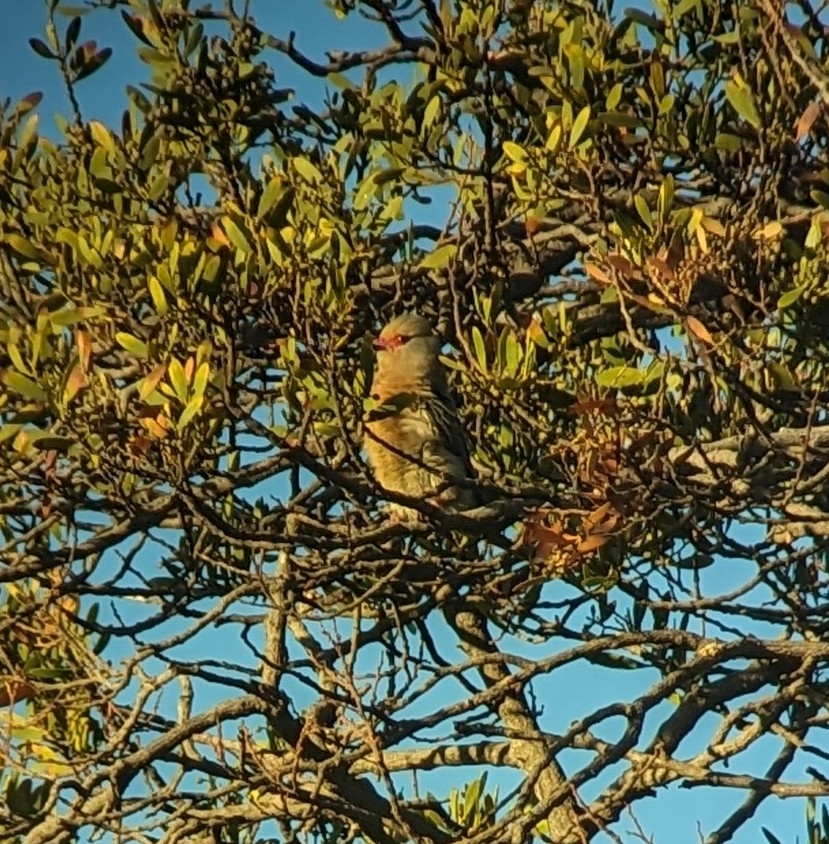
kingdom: Animalia
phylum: Chordata
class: Aves
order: Coliiformes
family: Coliidae
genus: Urocolius
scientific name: Urocolius indicus
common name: Red-faced mousebird
